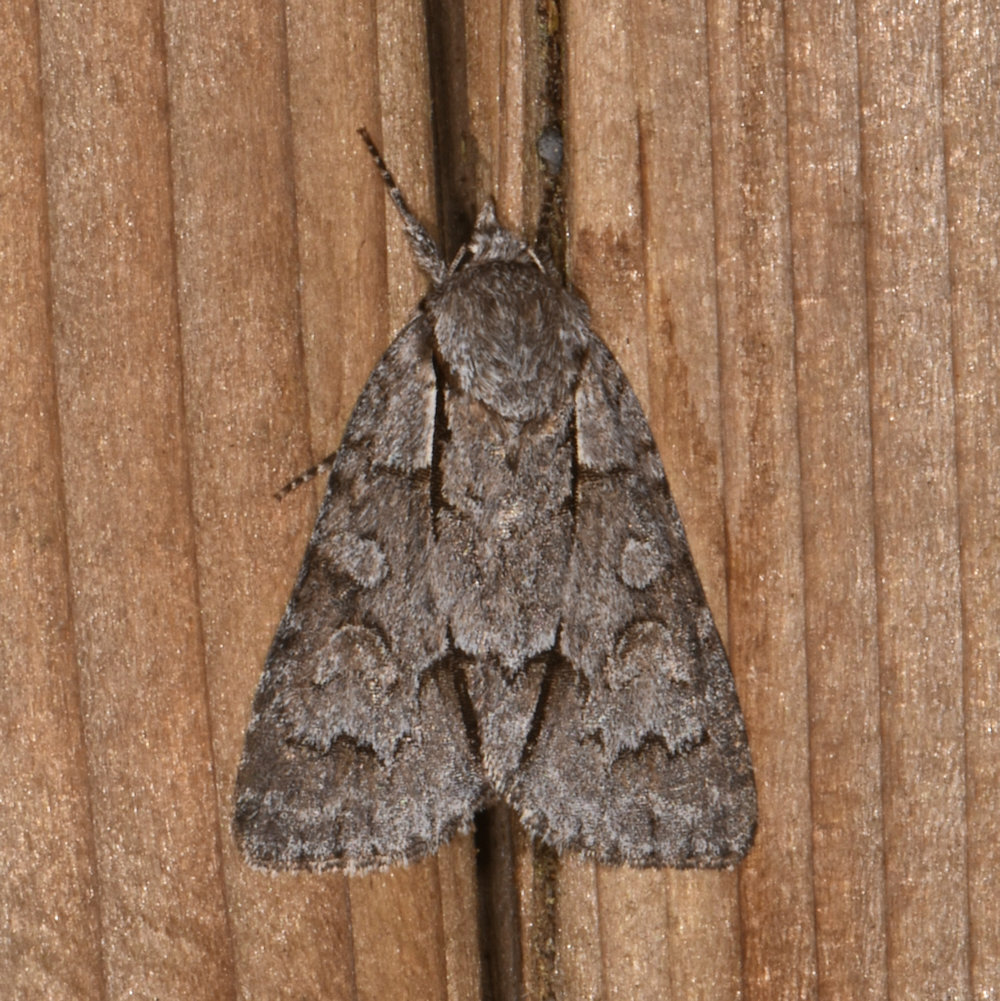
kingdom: Animalia
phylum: Arthropoda
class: Insecta
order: Lepidoptera
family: Noctuidae
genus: Acronicta
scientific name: Acronicta grisea
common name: Gray dagger
